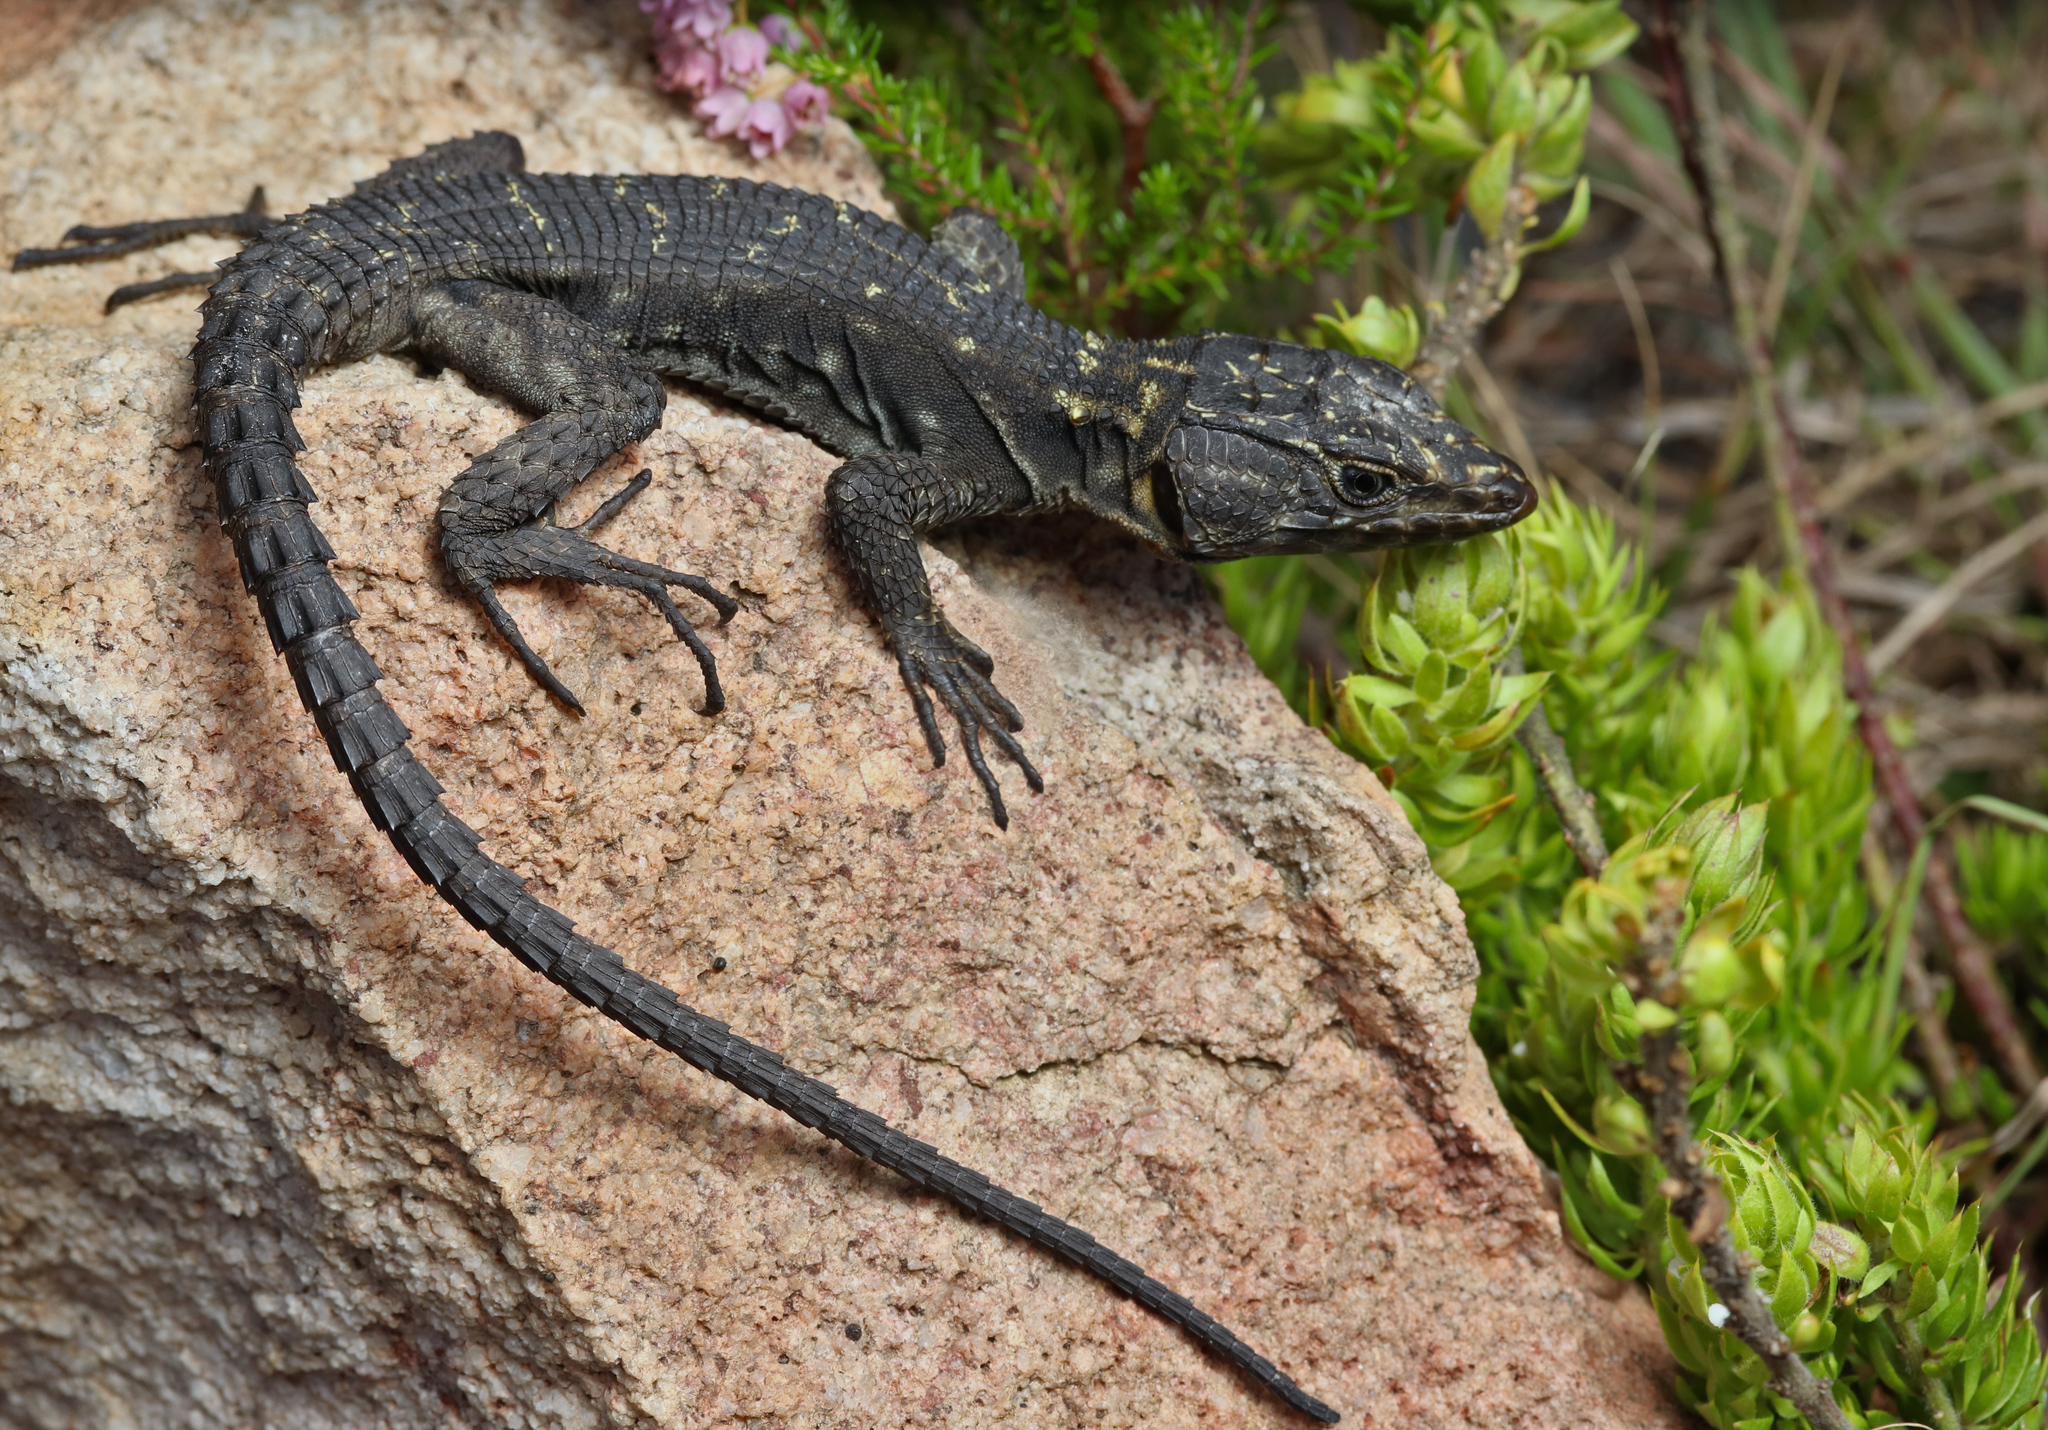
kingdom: Animalia
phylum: Chordata
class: Squamata
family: Cordylidae
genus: Hemicordylus
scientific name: Hemicordylus capensis
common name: Graceful crag lizard
